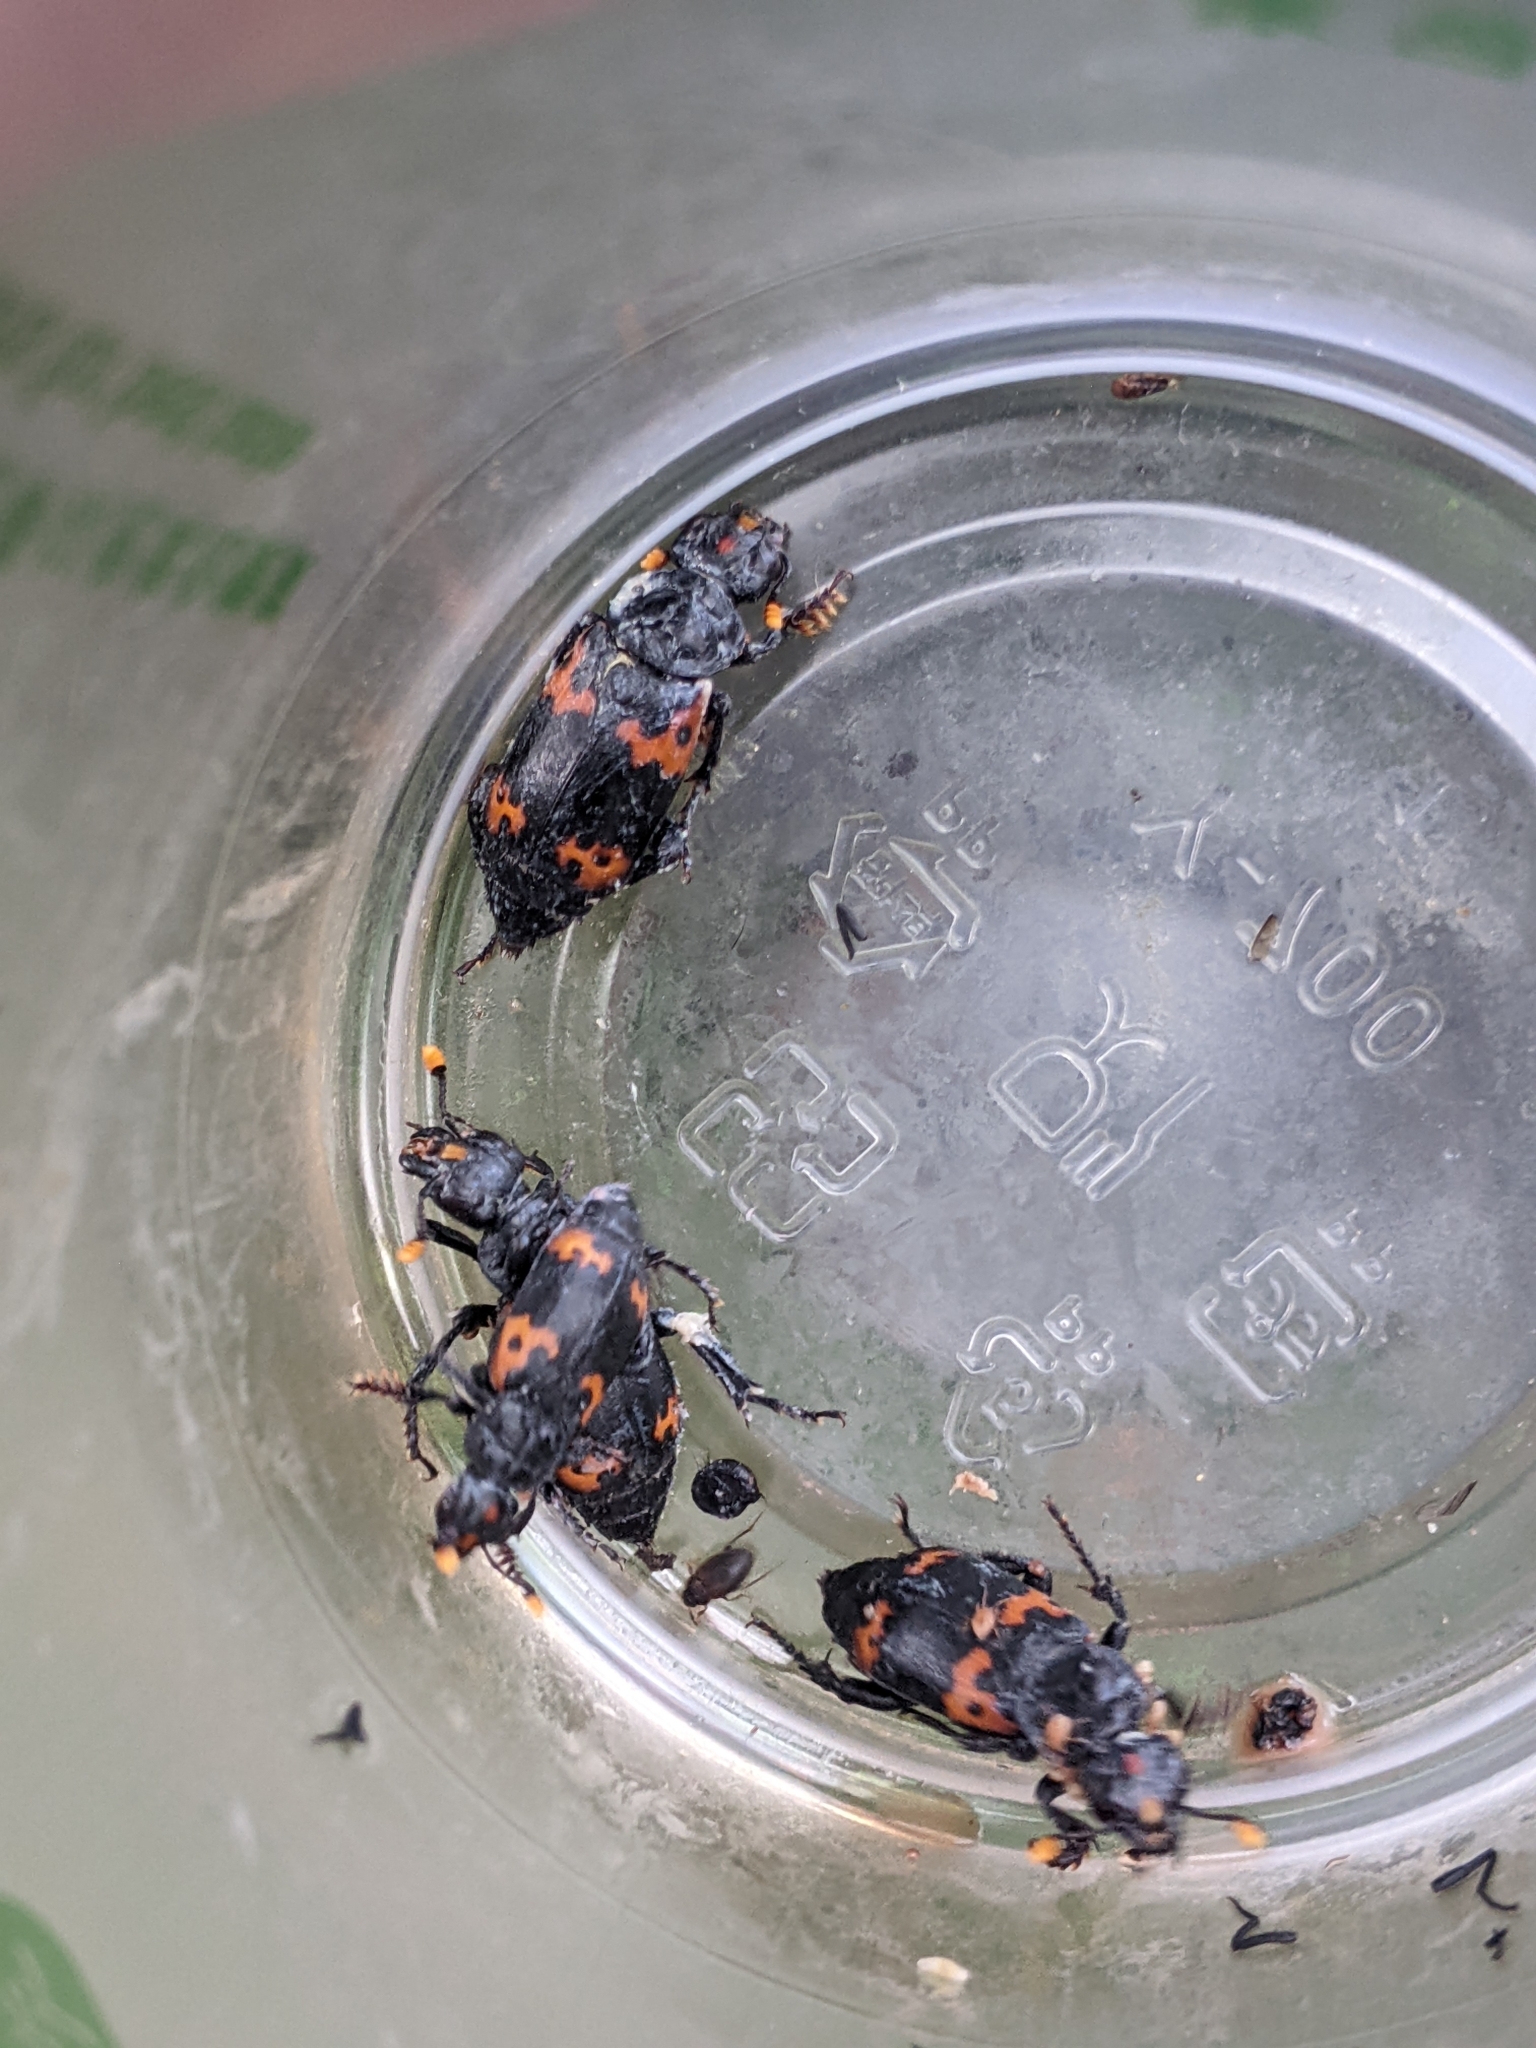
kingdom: Animalia
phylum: Arthropoda
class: Insecta
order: Coleoptera
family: Staphylinidae
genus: Nicrophorus
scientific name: Nicrophorus nepalensis
